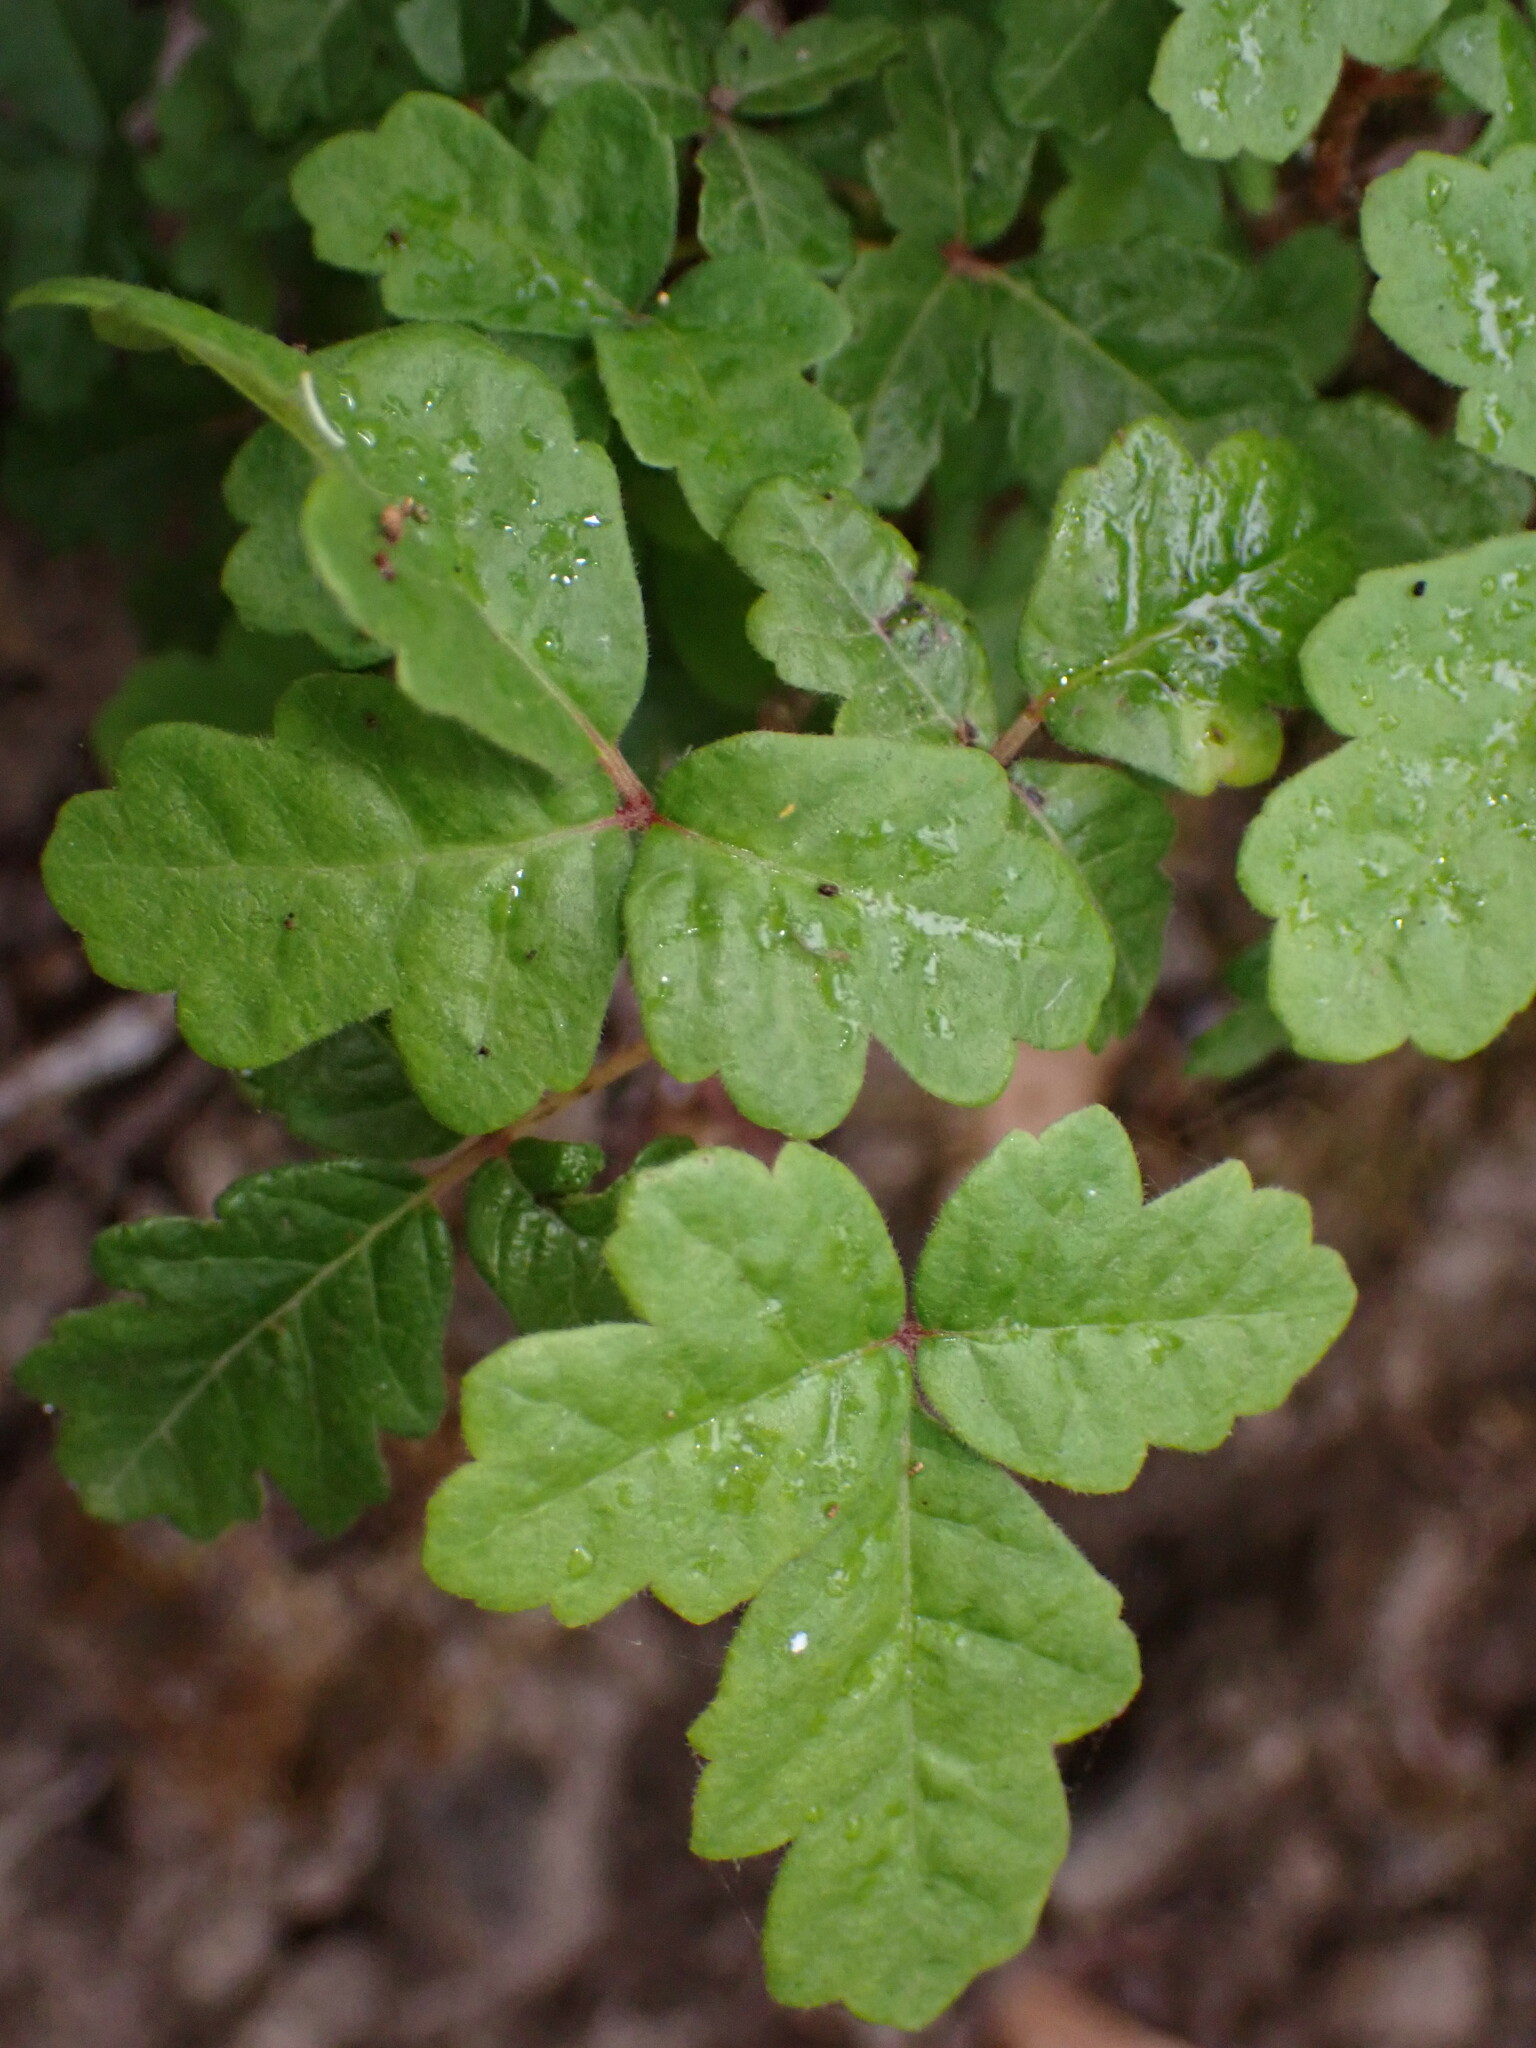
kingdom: Plantae
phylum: Tracheophyta
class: Magnoliopsida
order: Sapindales
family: Anacardiaceae
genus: Toxicodendron
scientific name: Toxicodendron diversilobum
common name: Pacific poison-oak
